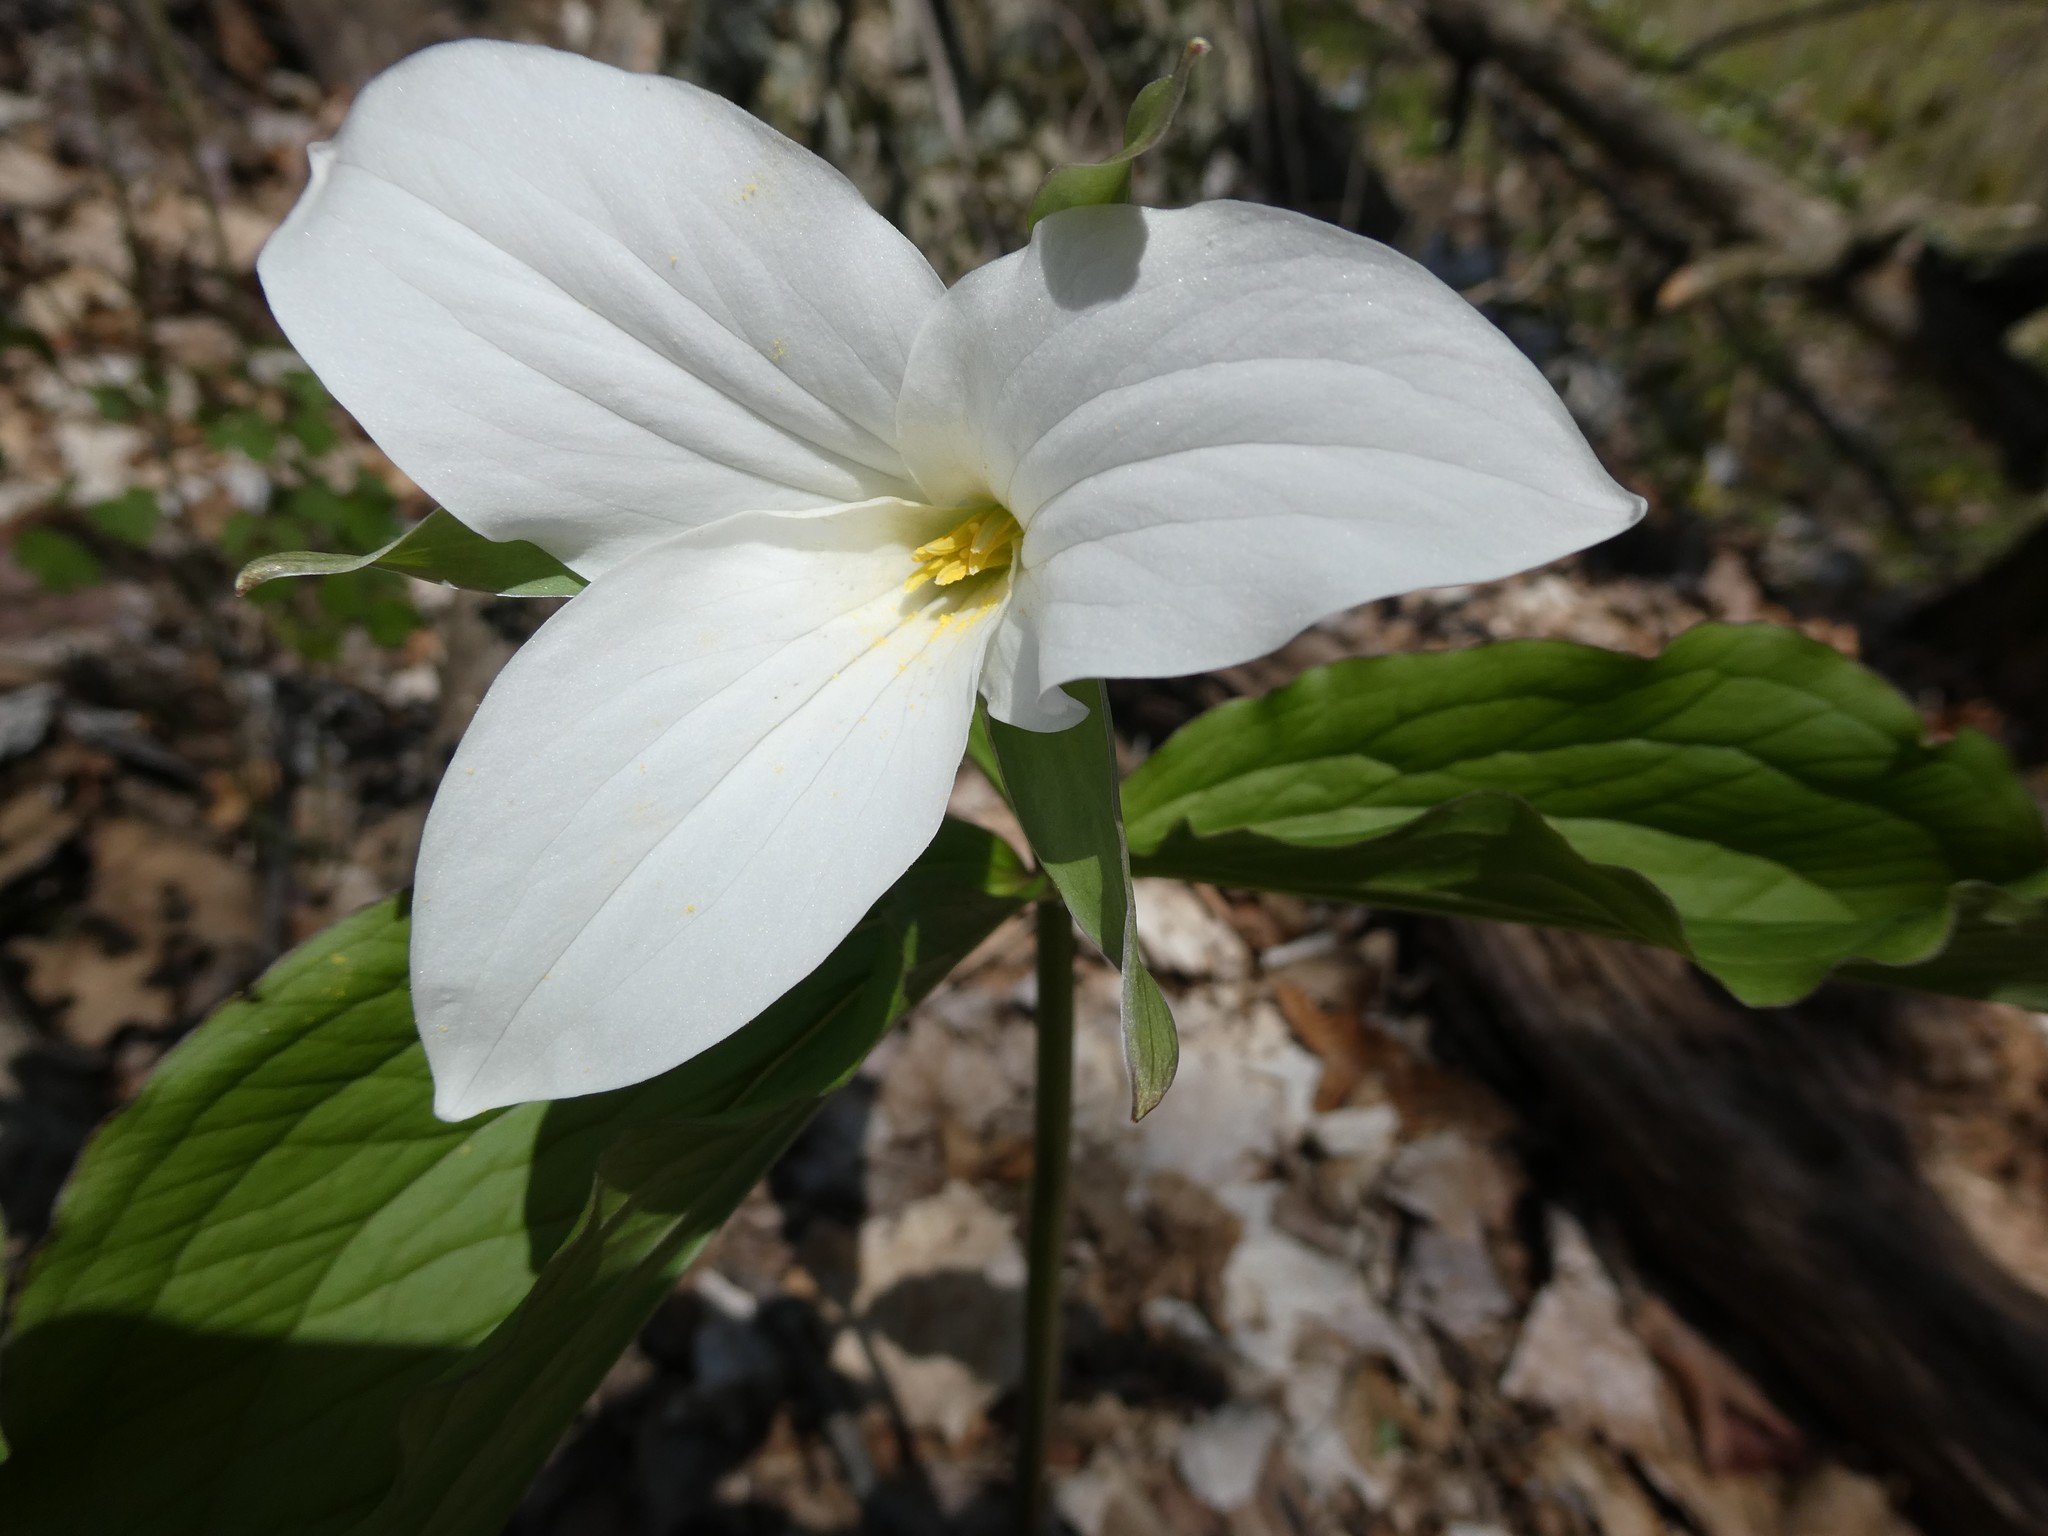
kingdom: Plantae
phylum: Tracheophyta
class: Liliopsida
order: Liliales
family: Melanthiaceae
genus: Trillium
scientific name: Trillium grandiflorum
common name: Great white trillium
